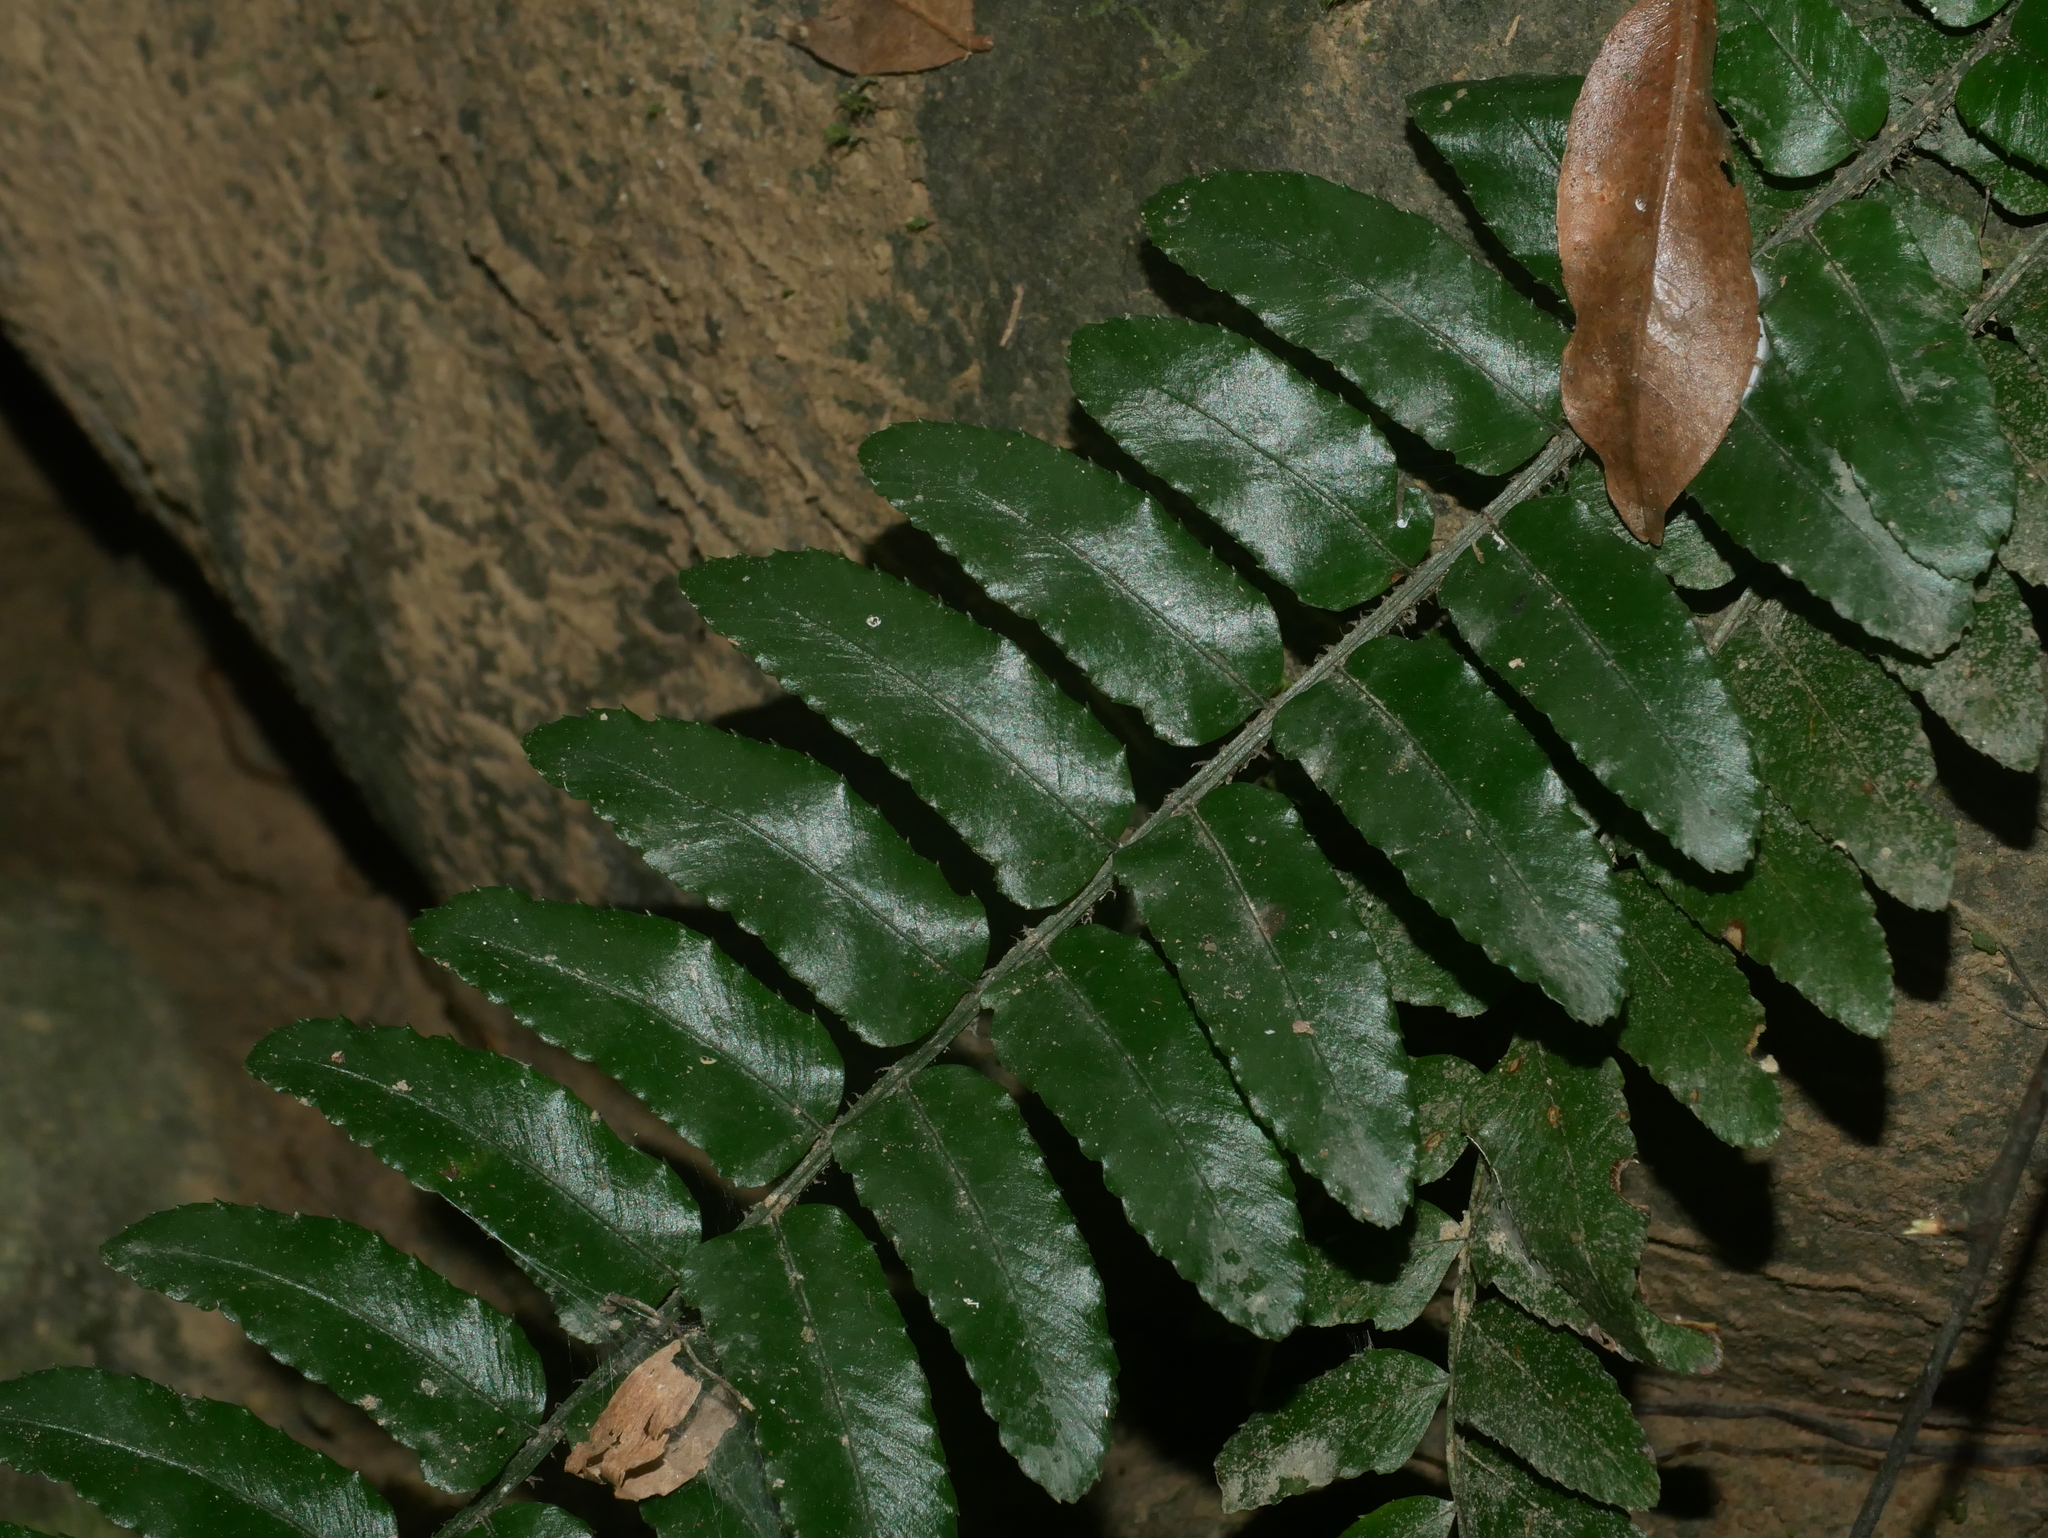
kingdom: Plantae
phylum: Tracheophyta
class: Polypodiopsida
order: Polypodiales
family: Dryopteridaceae
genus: Bolbitis
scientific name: Bolbitis rhizophylla
